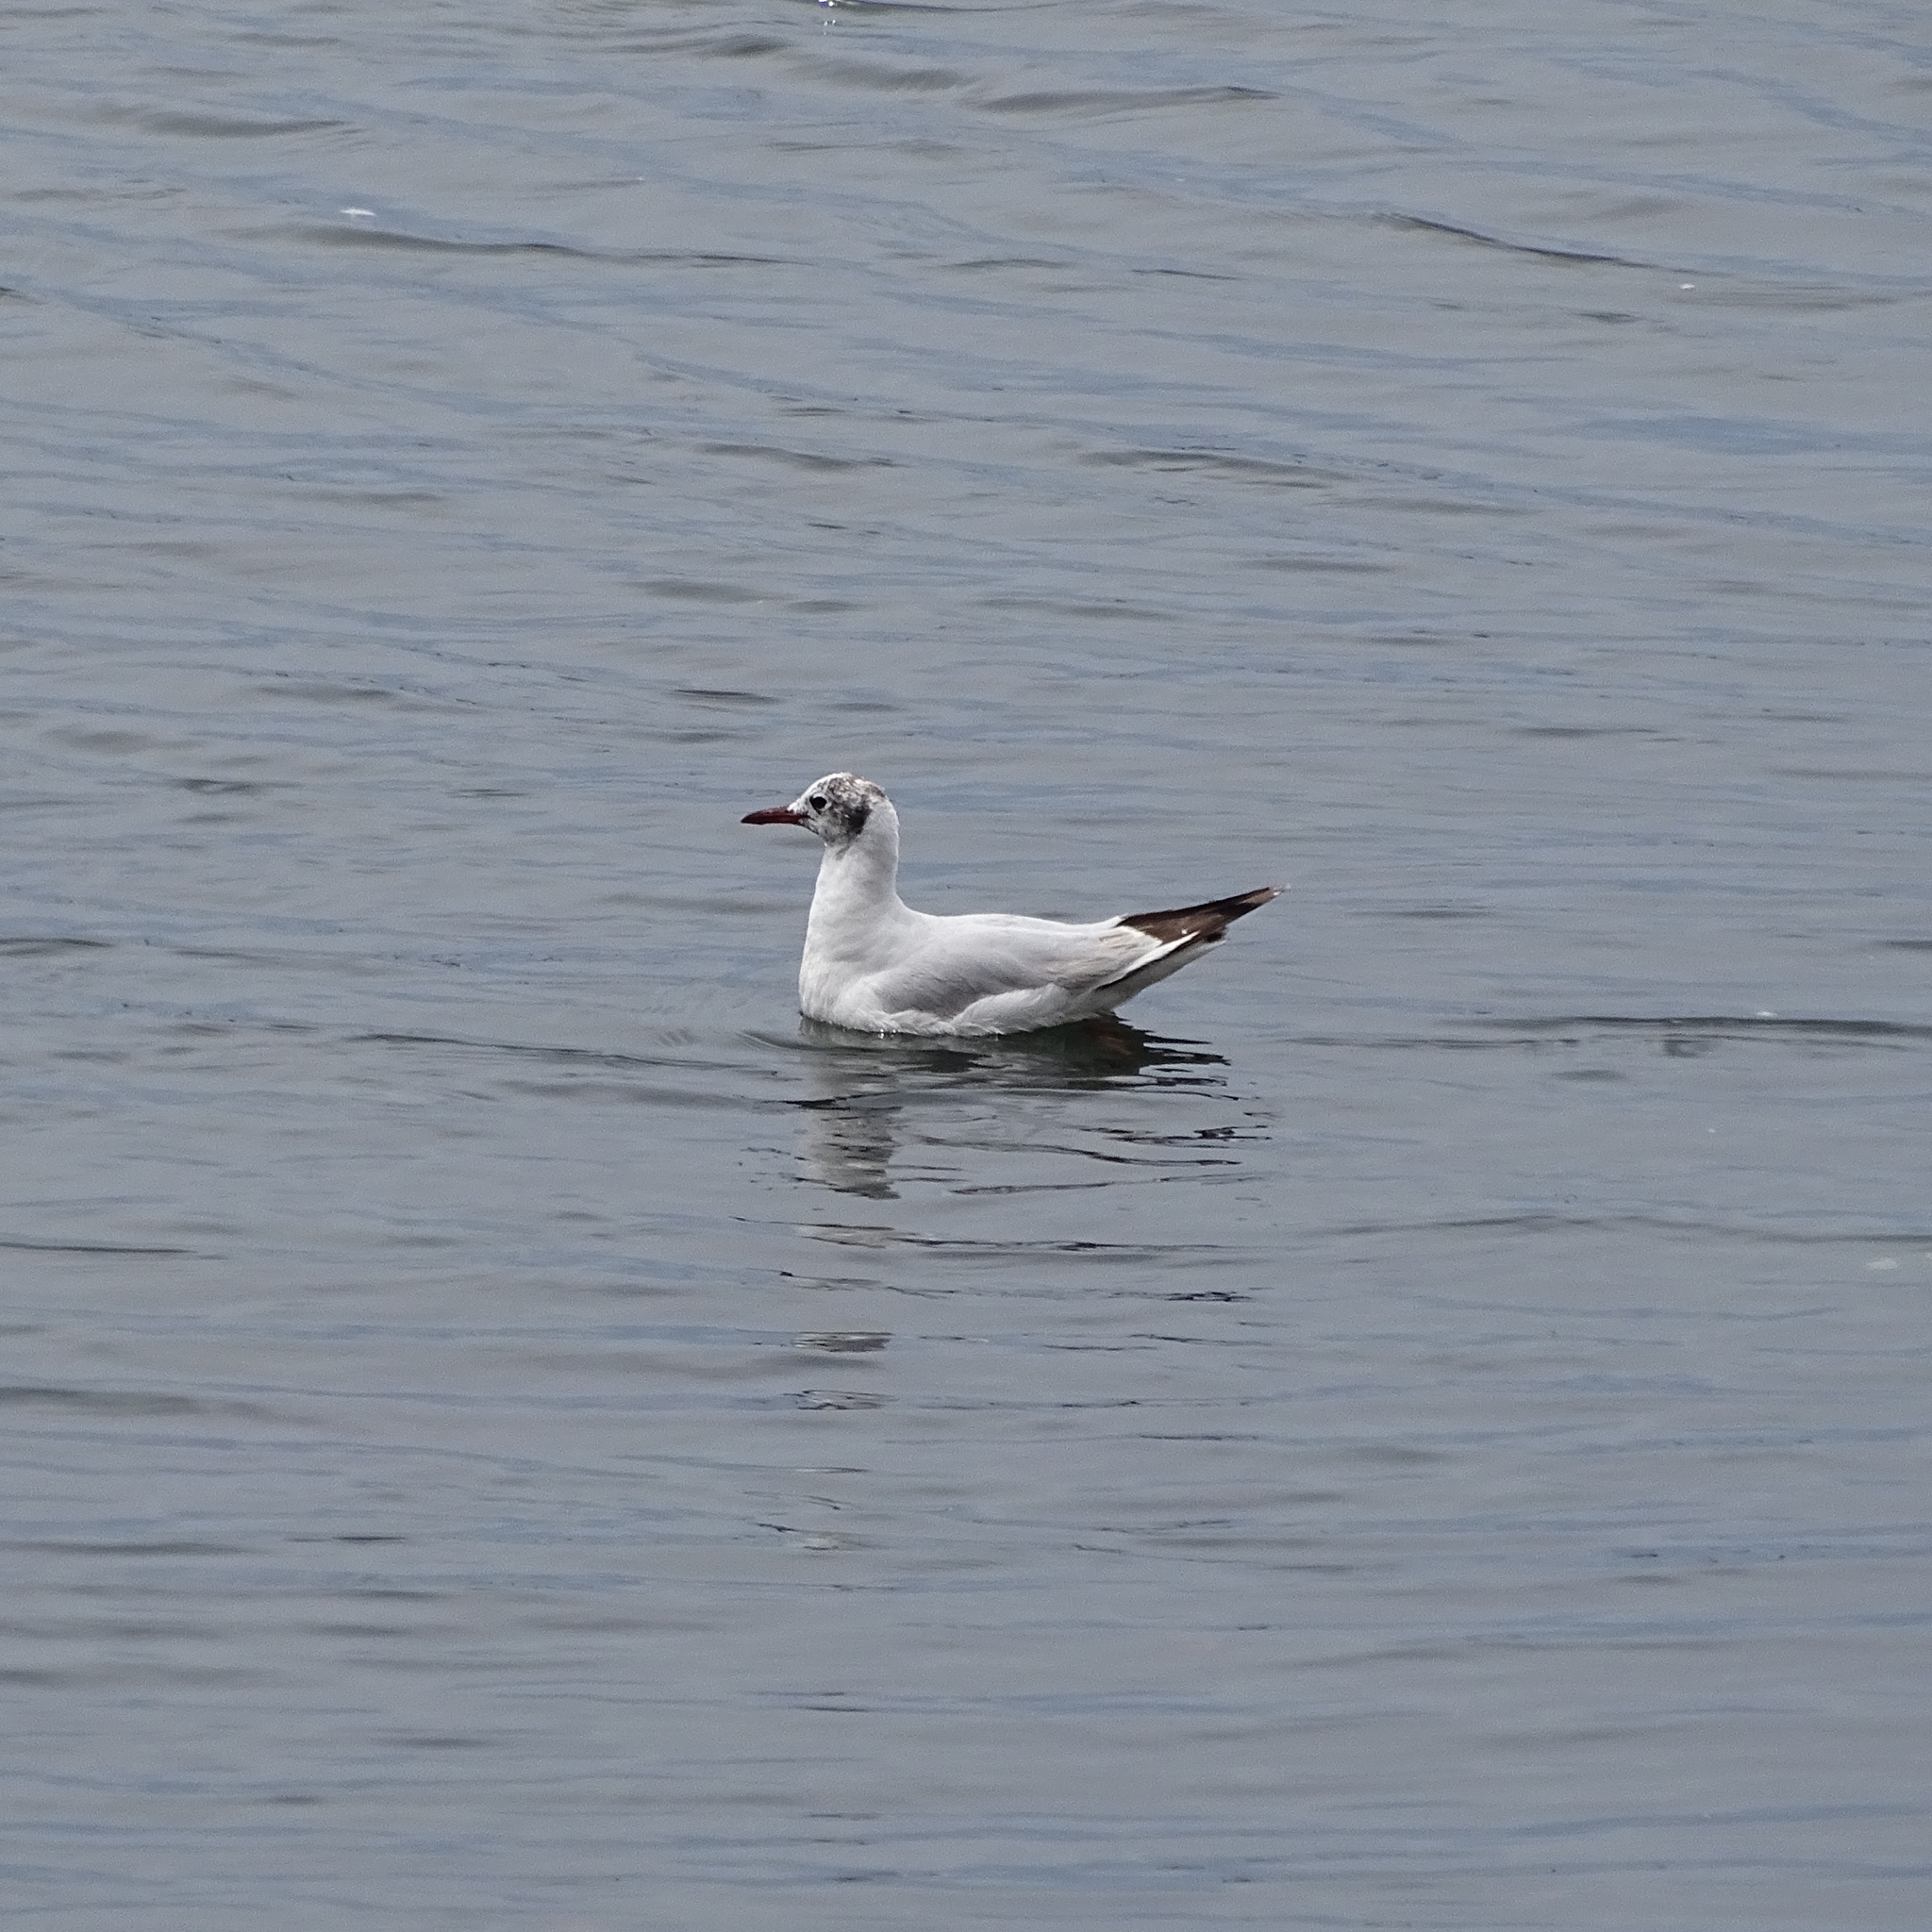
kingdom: Animalia
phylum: Chordata
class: Aves
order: Charadriiformes
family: Laridae
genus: Chroicocephalus
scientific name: Chroicocephalus maculipennis
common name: Brown-hooded gull
